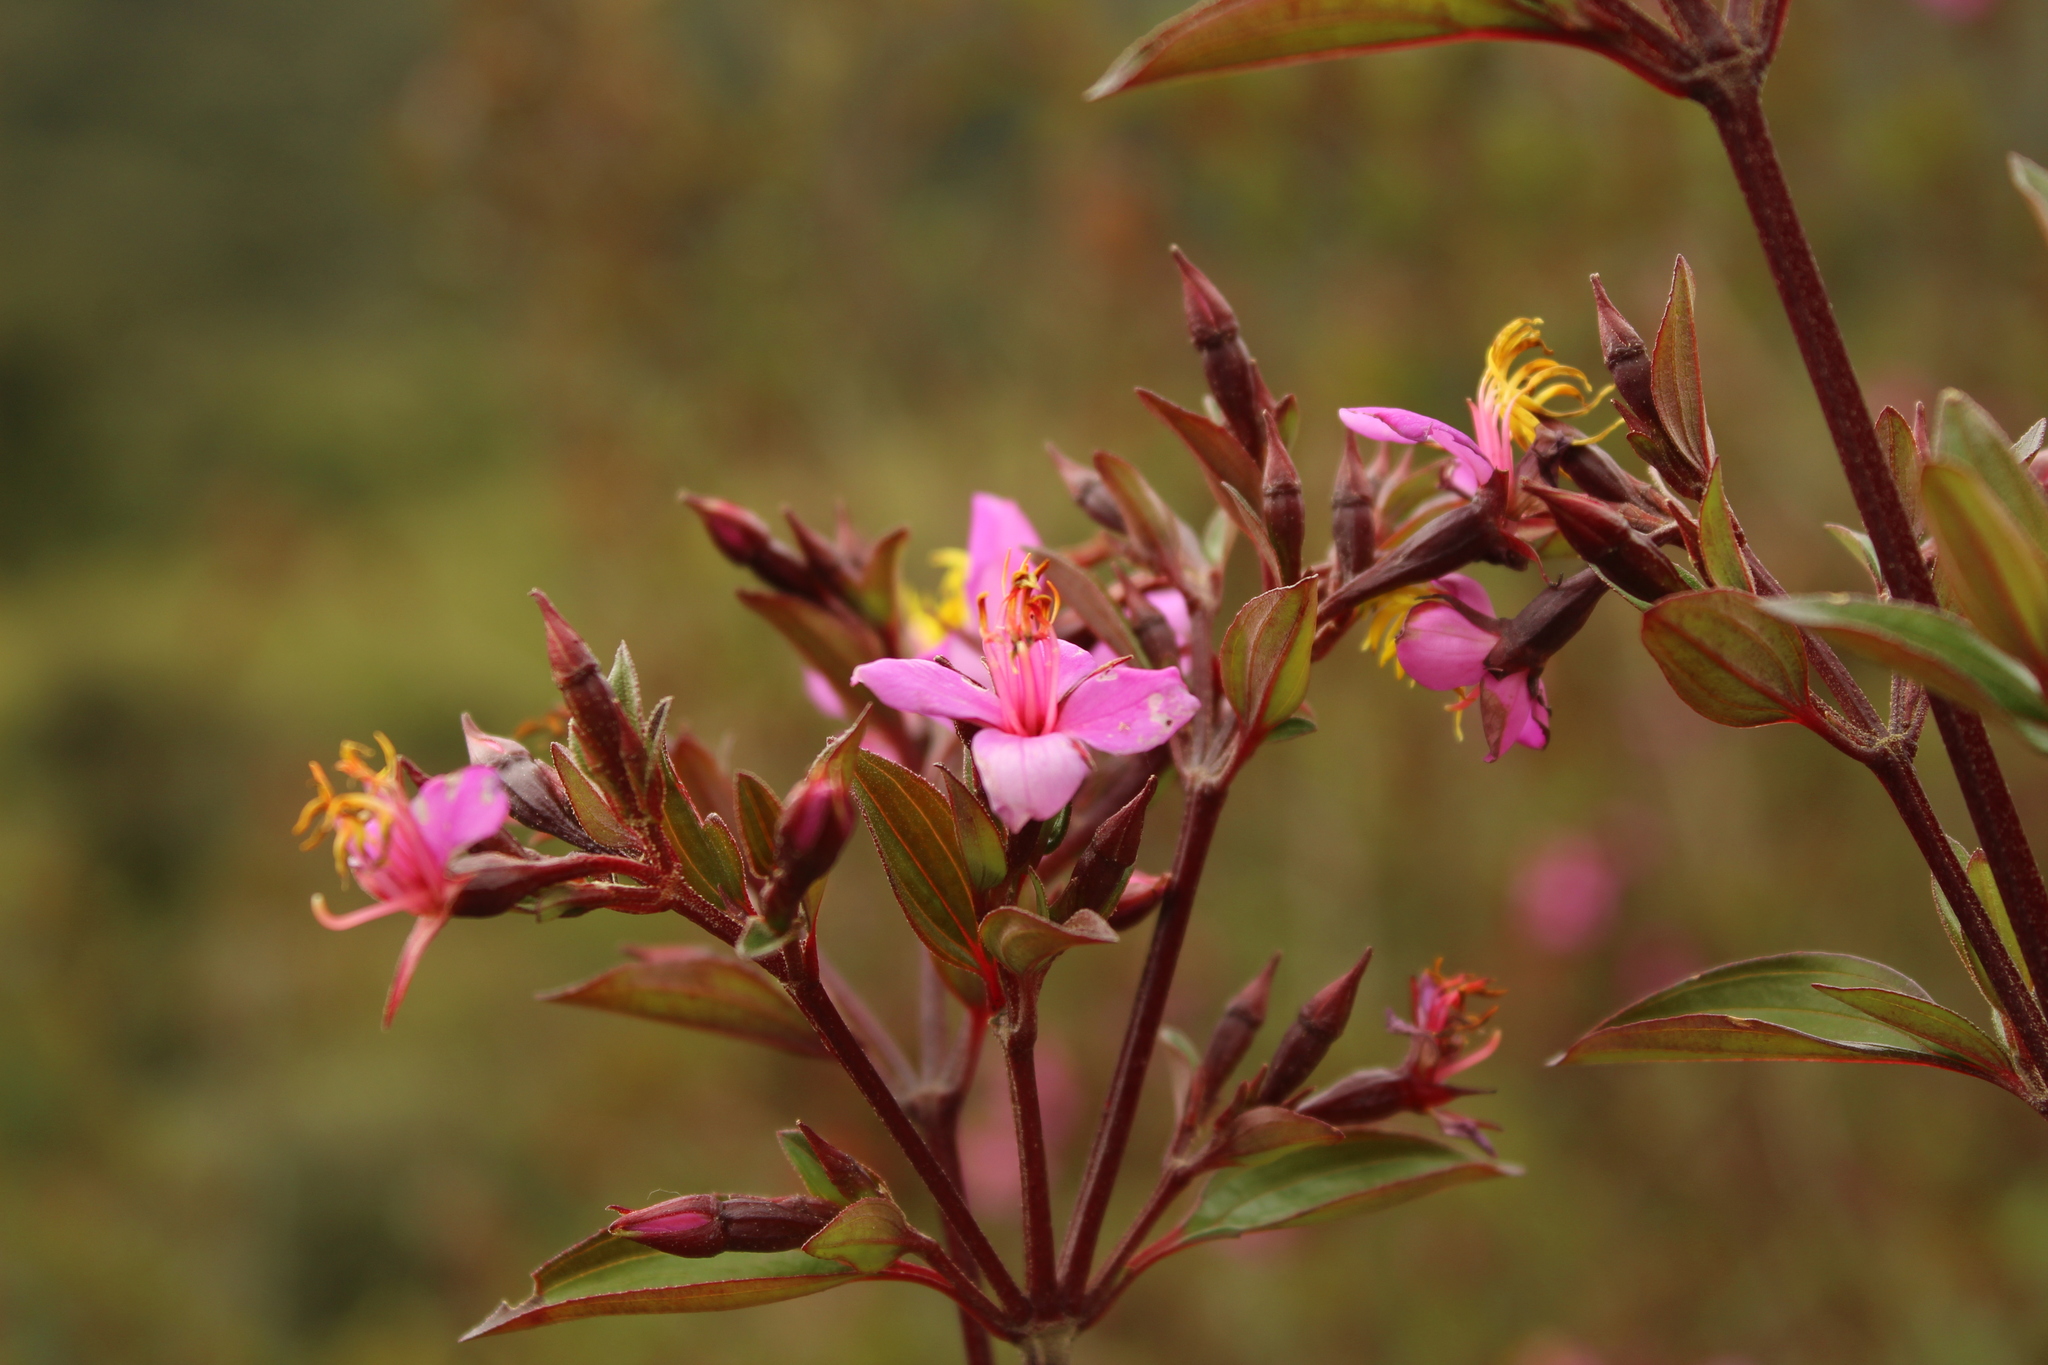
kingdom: Plantae
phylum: Tracheophyta
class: Magnoliopsida
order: Myrtales
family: Melastomataceae
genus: Monochaetum
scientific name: Monochaetum myrtoideum
